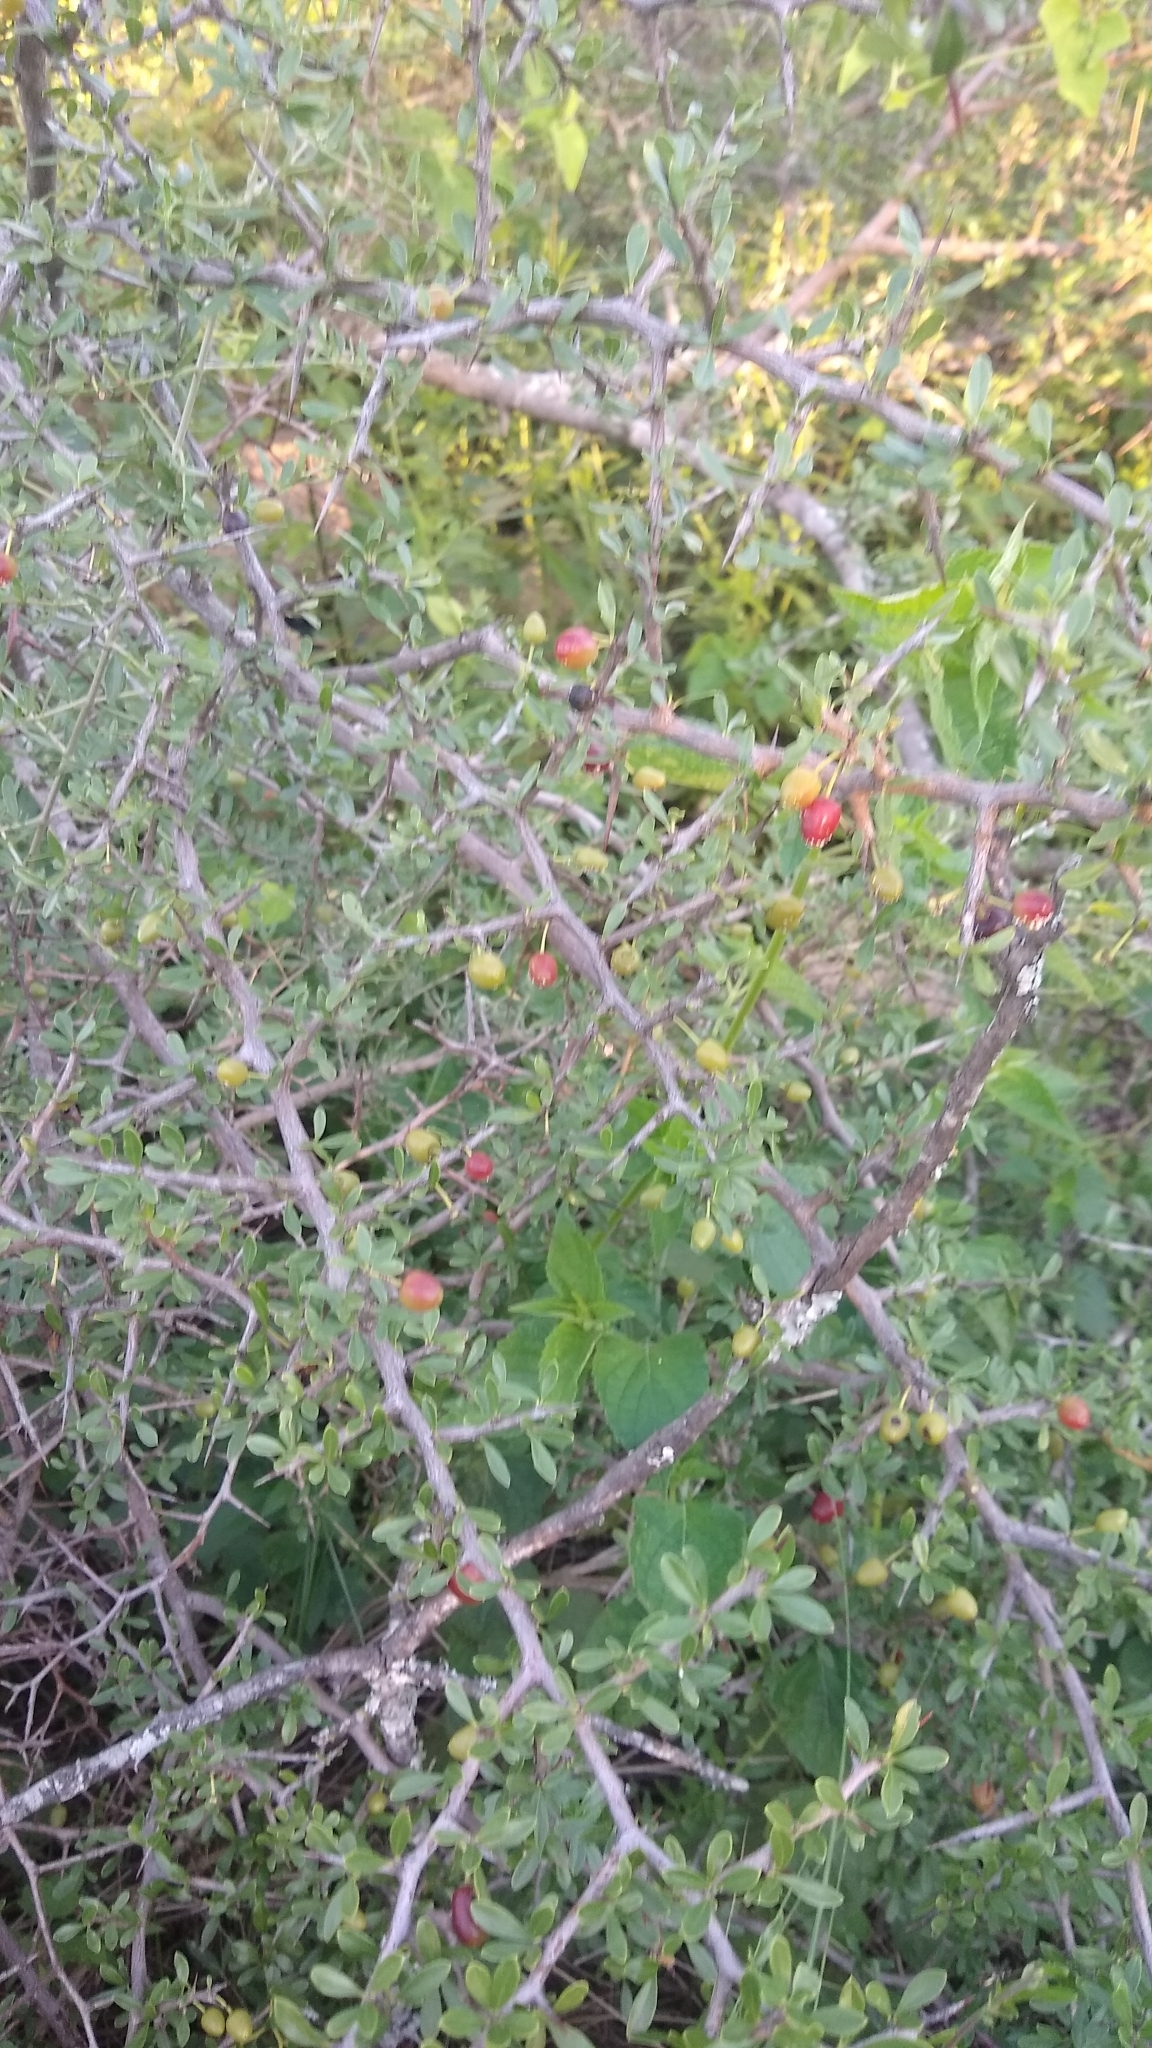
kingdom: Plantae
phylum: Tracheophyta
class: Magnoliopsida
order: Rosales
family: Rhamnaceae
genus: Condalia
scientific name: Condalia microphylla
